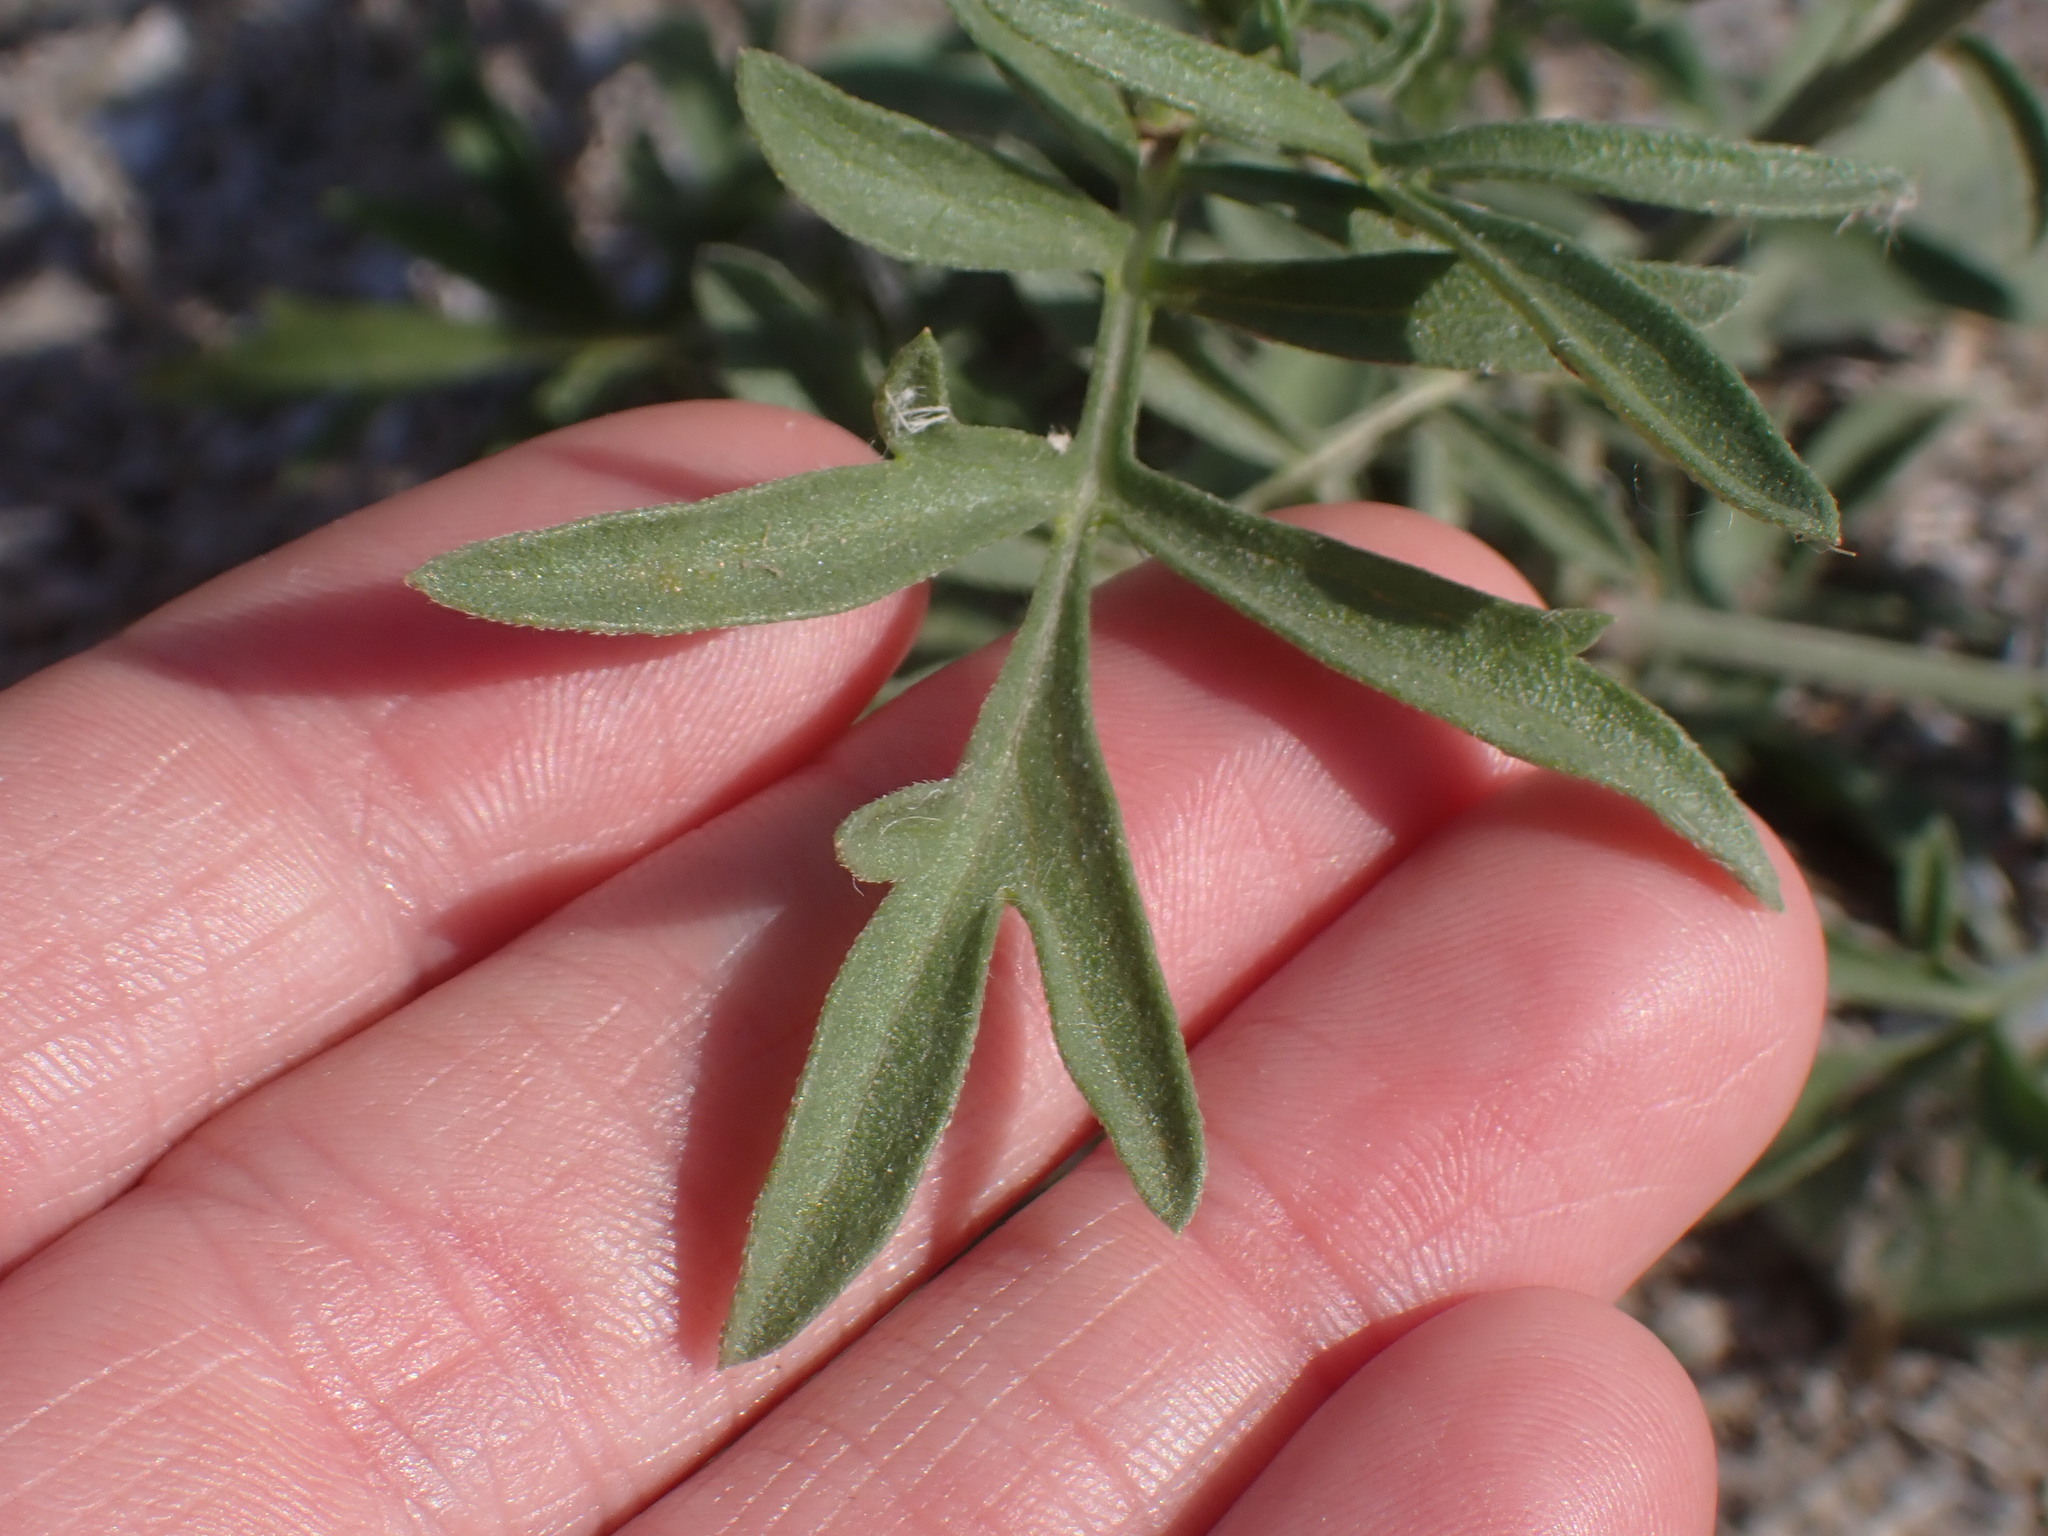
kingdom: Plantae
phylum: Tracheophyta
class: Magnoliopsida
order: Asterales
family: Asteraceae
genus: Ratibida
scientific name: Ratibida columnifera
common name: Prairie coneflower
